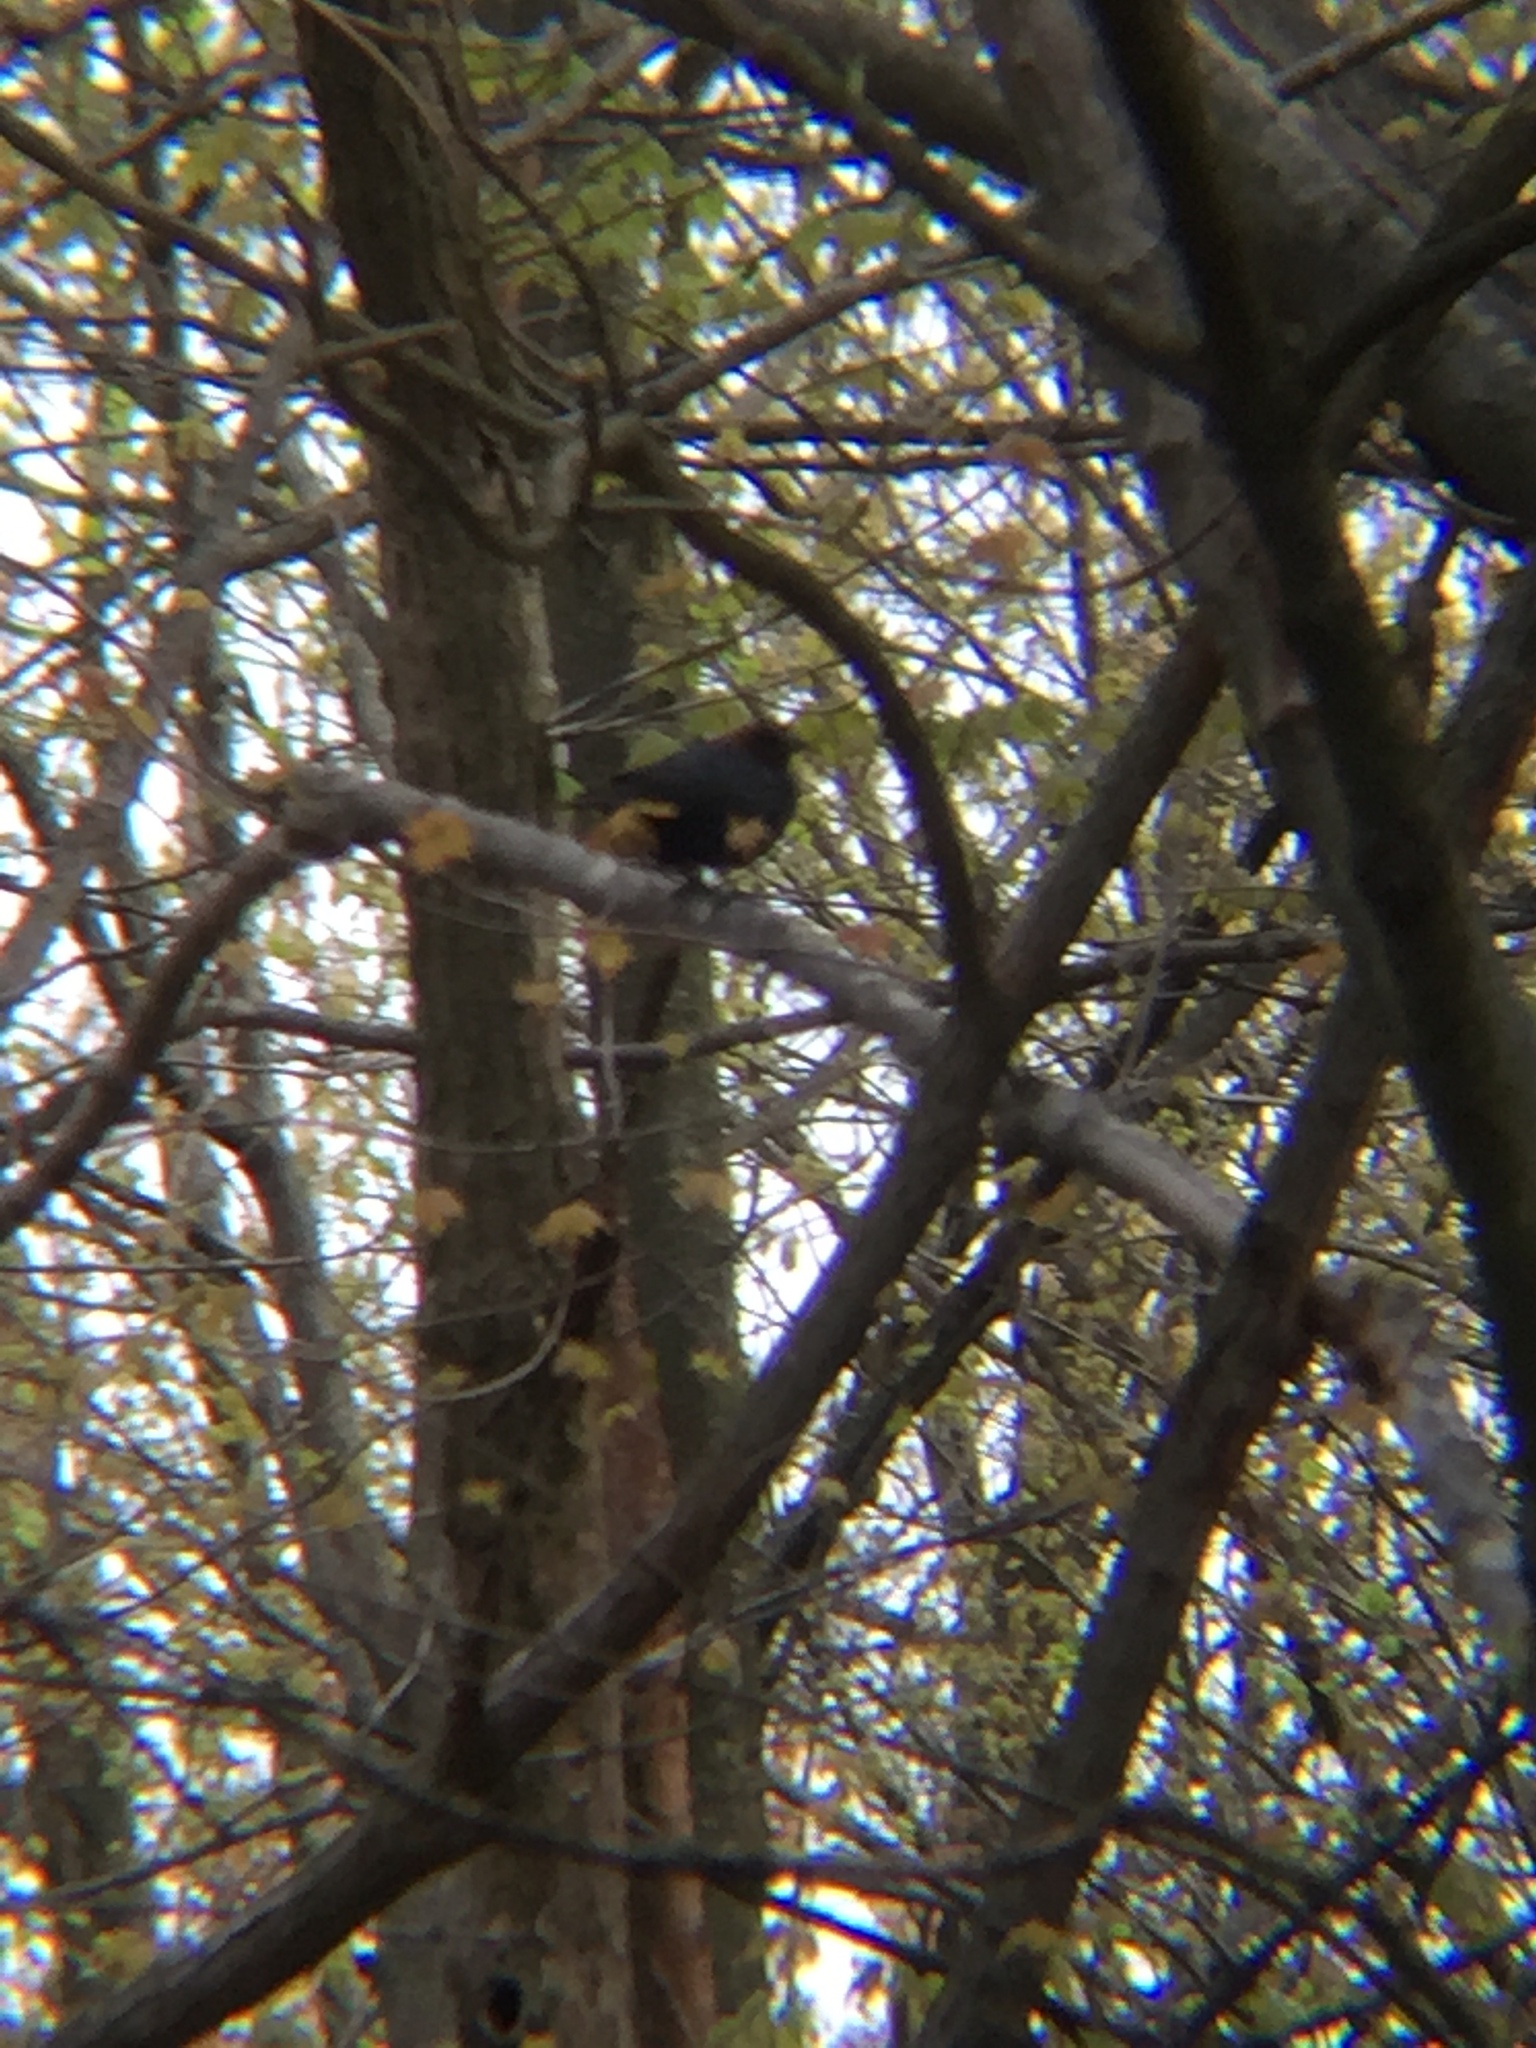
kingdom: Animalia
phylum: Chordata
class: Aves
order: Passeriformes
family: Icteridae
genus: Molothrus
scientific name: Molothrus ater
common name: Brown-headed cowbird
